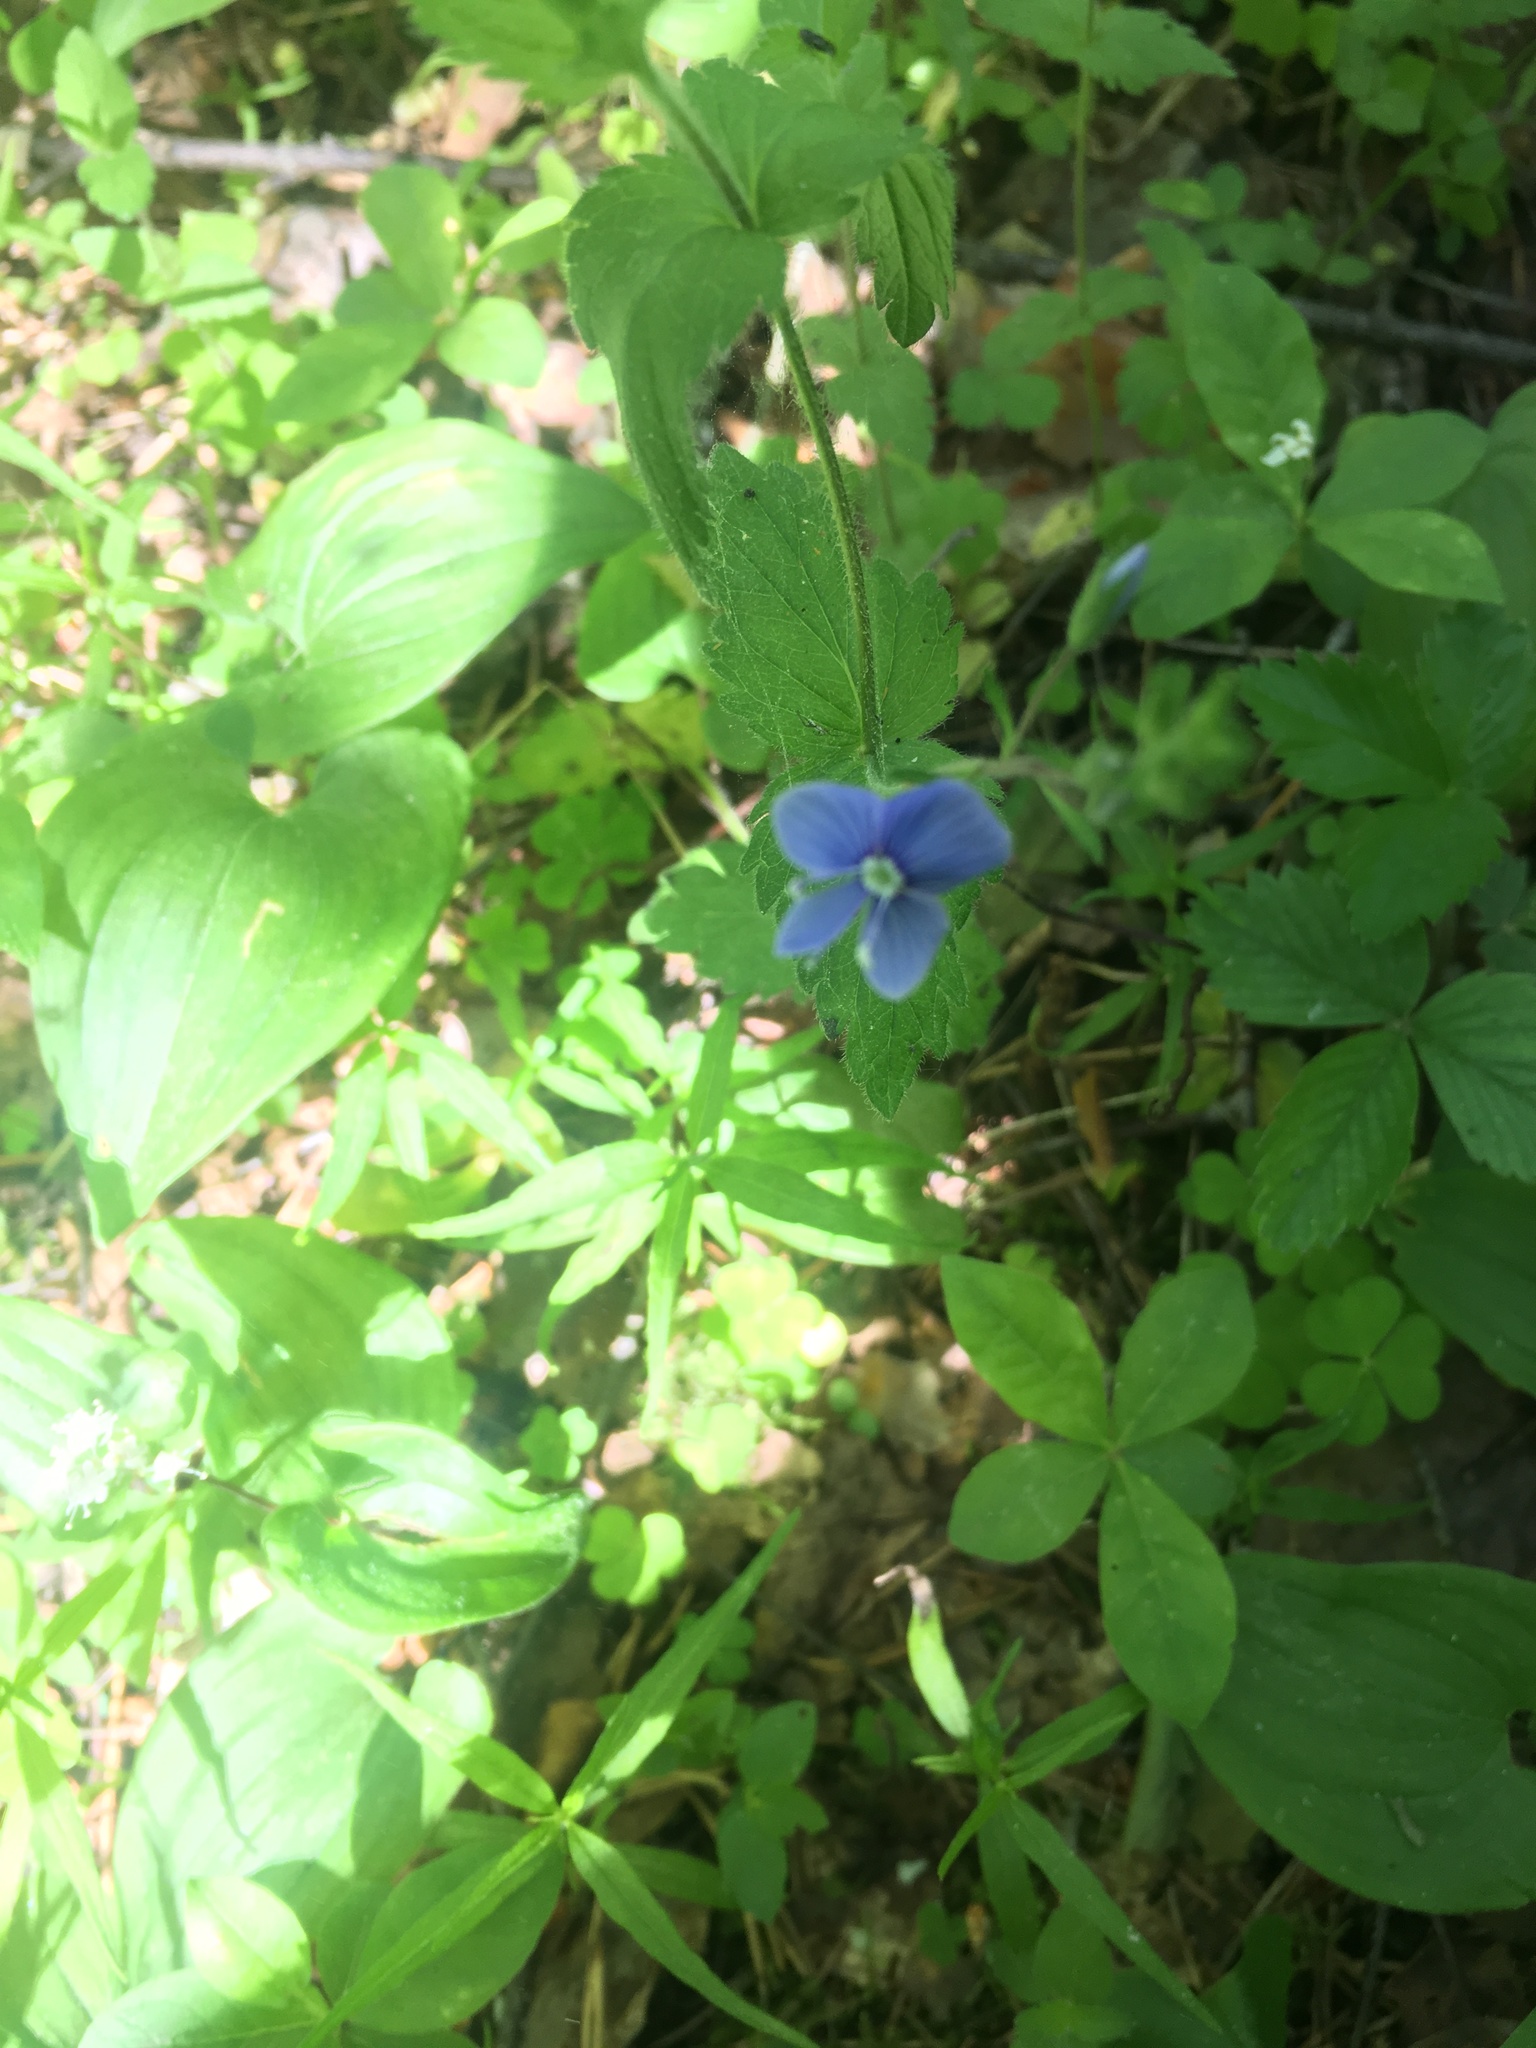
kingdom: Plantae
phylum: Tracheophyta
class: Magnoliopsida
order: Lamiales
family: Plantaginaceae
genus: Veronica
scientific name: Veronica chamaedrys
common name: Germander speedwell
